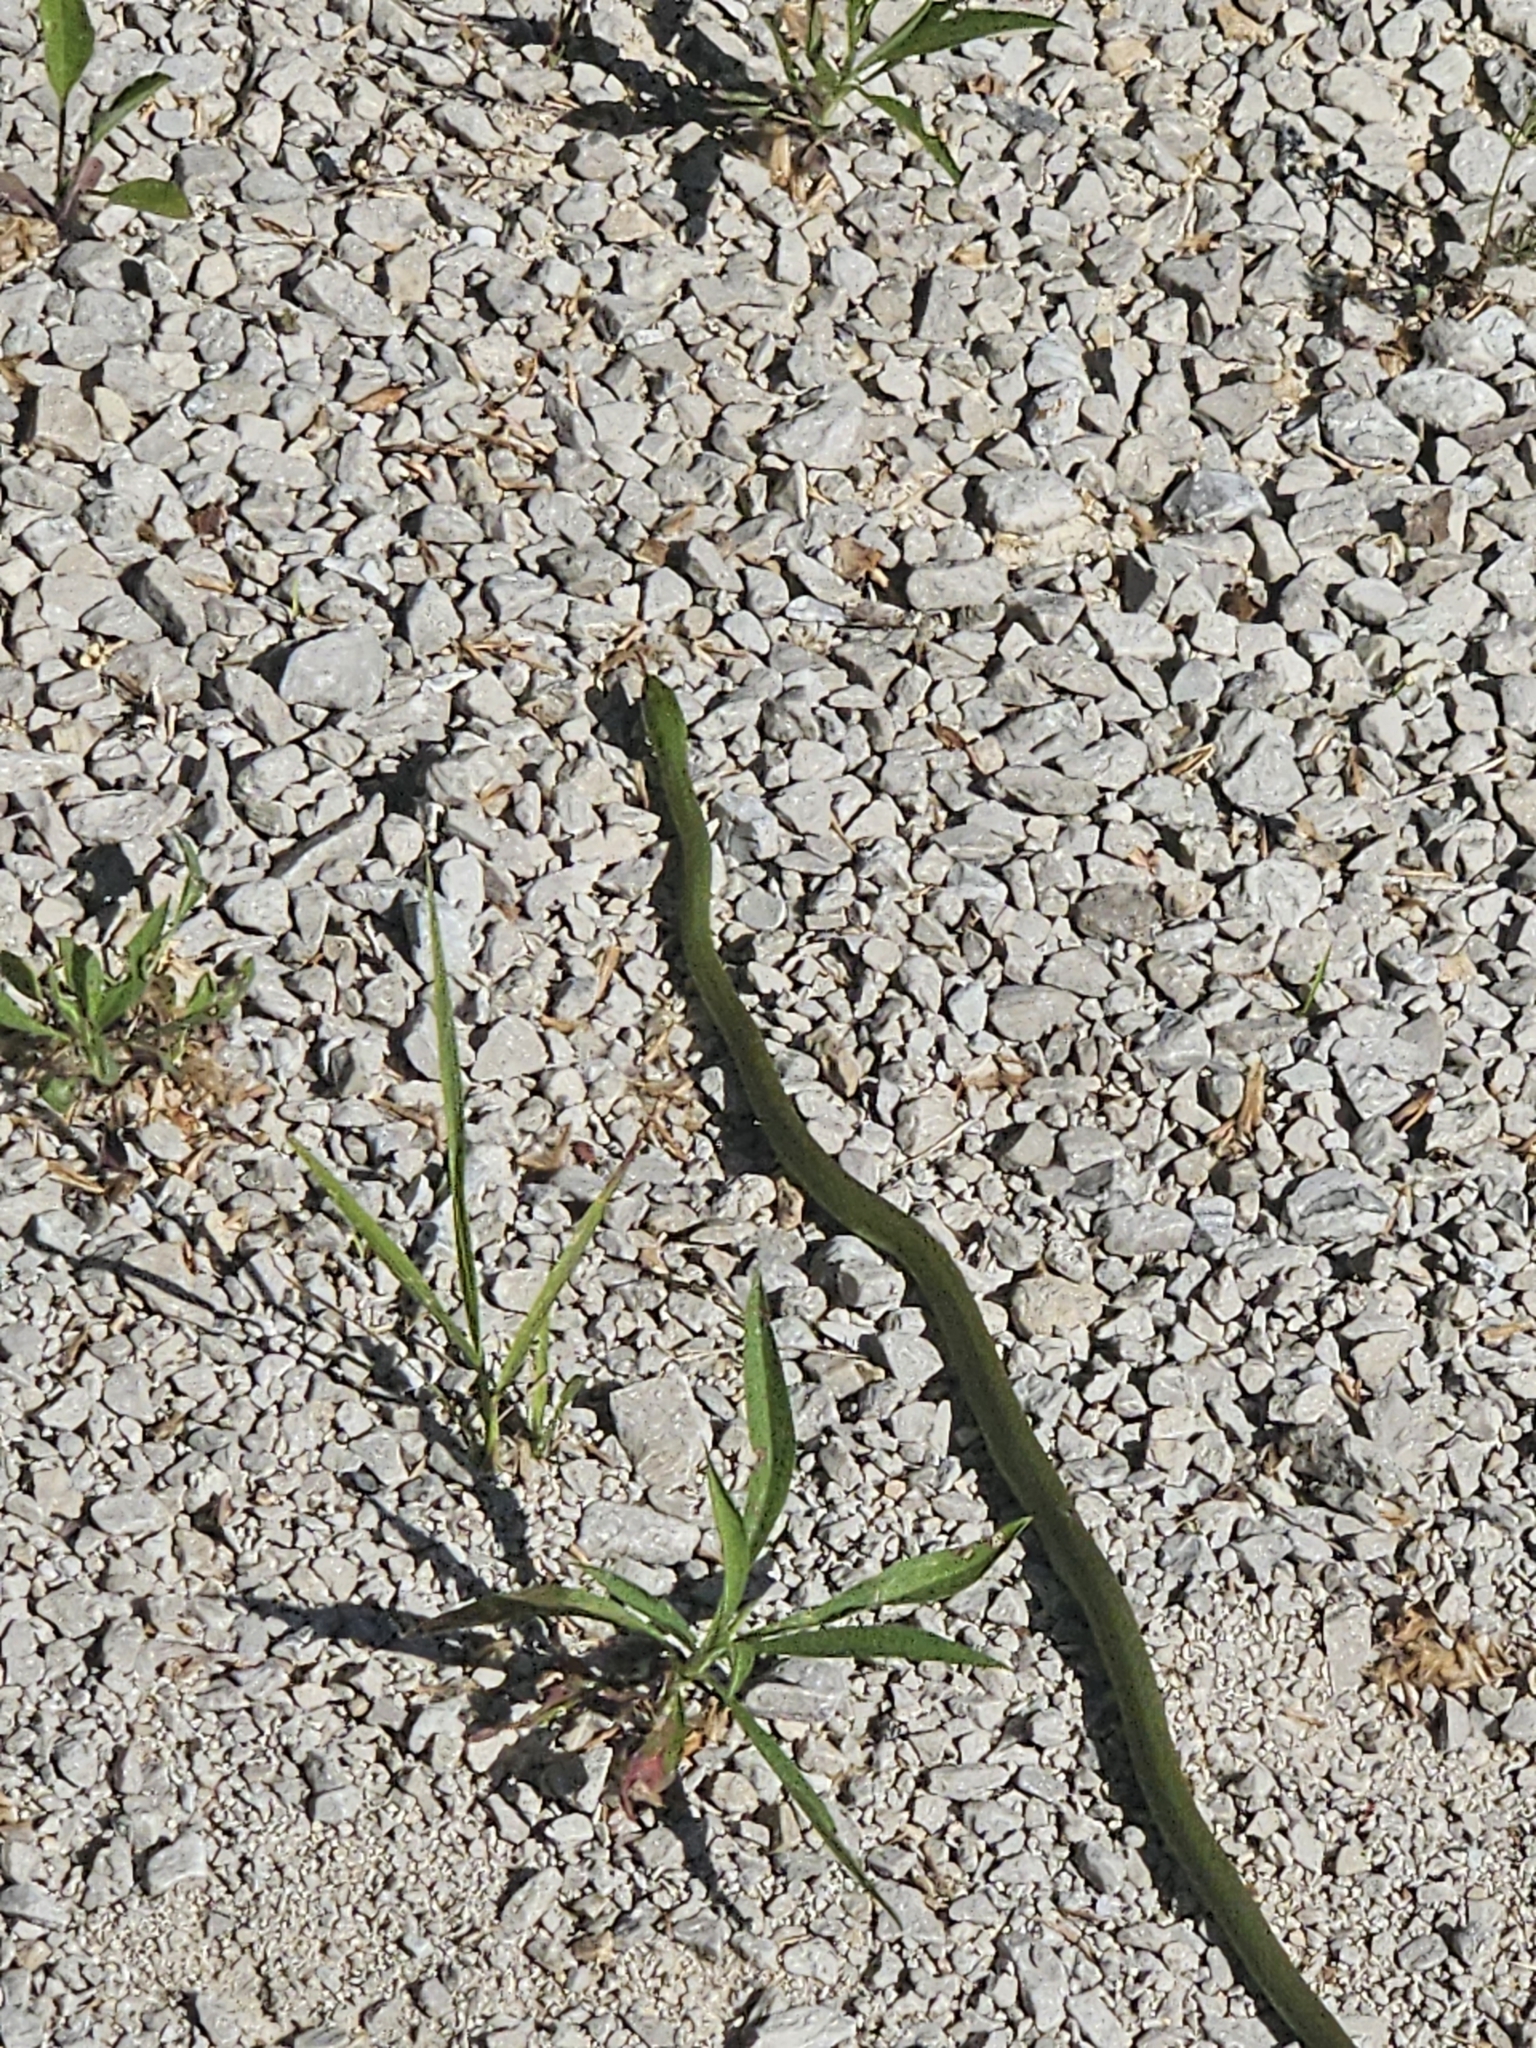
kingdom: Animalia
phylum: Chordata
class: Squamata
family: Colubridae
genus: Opheodrys
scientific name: Opheodrys aestivus
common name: Rough greensnake
